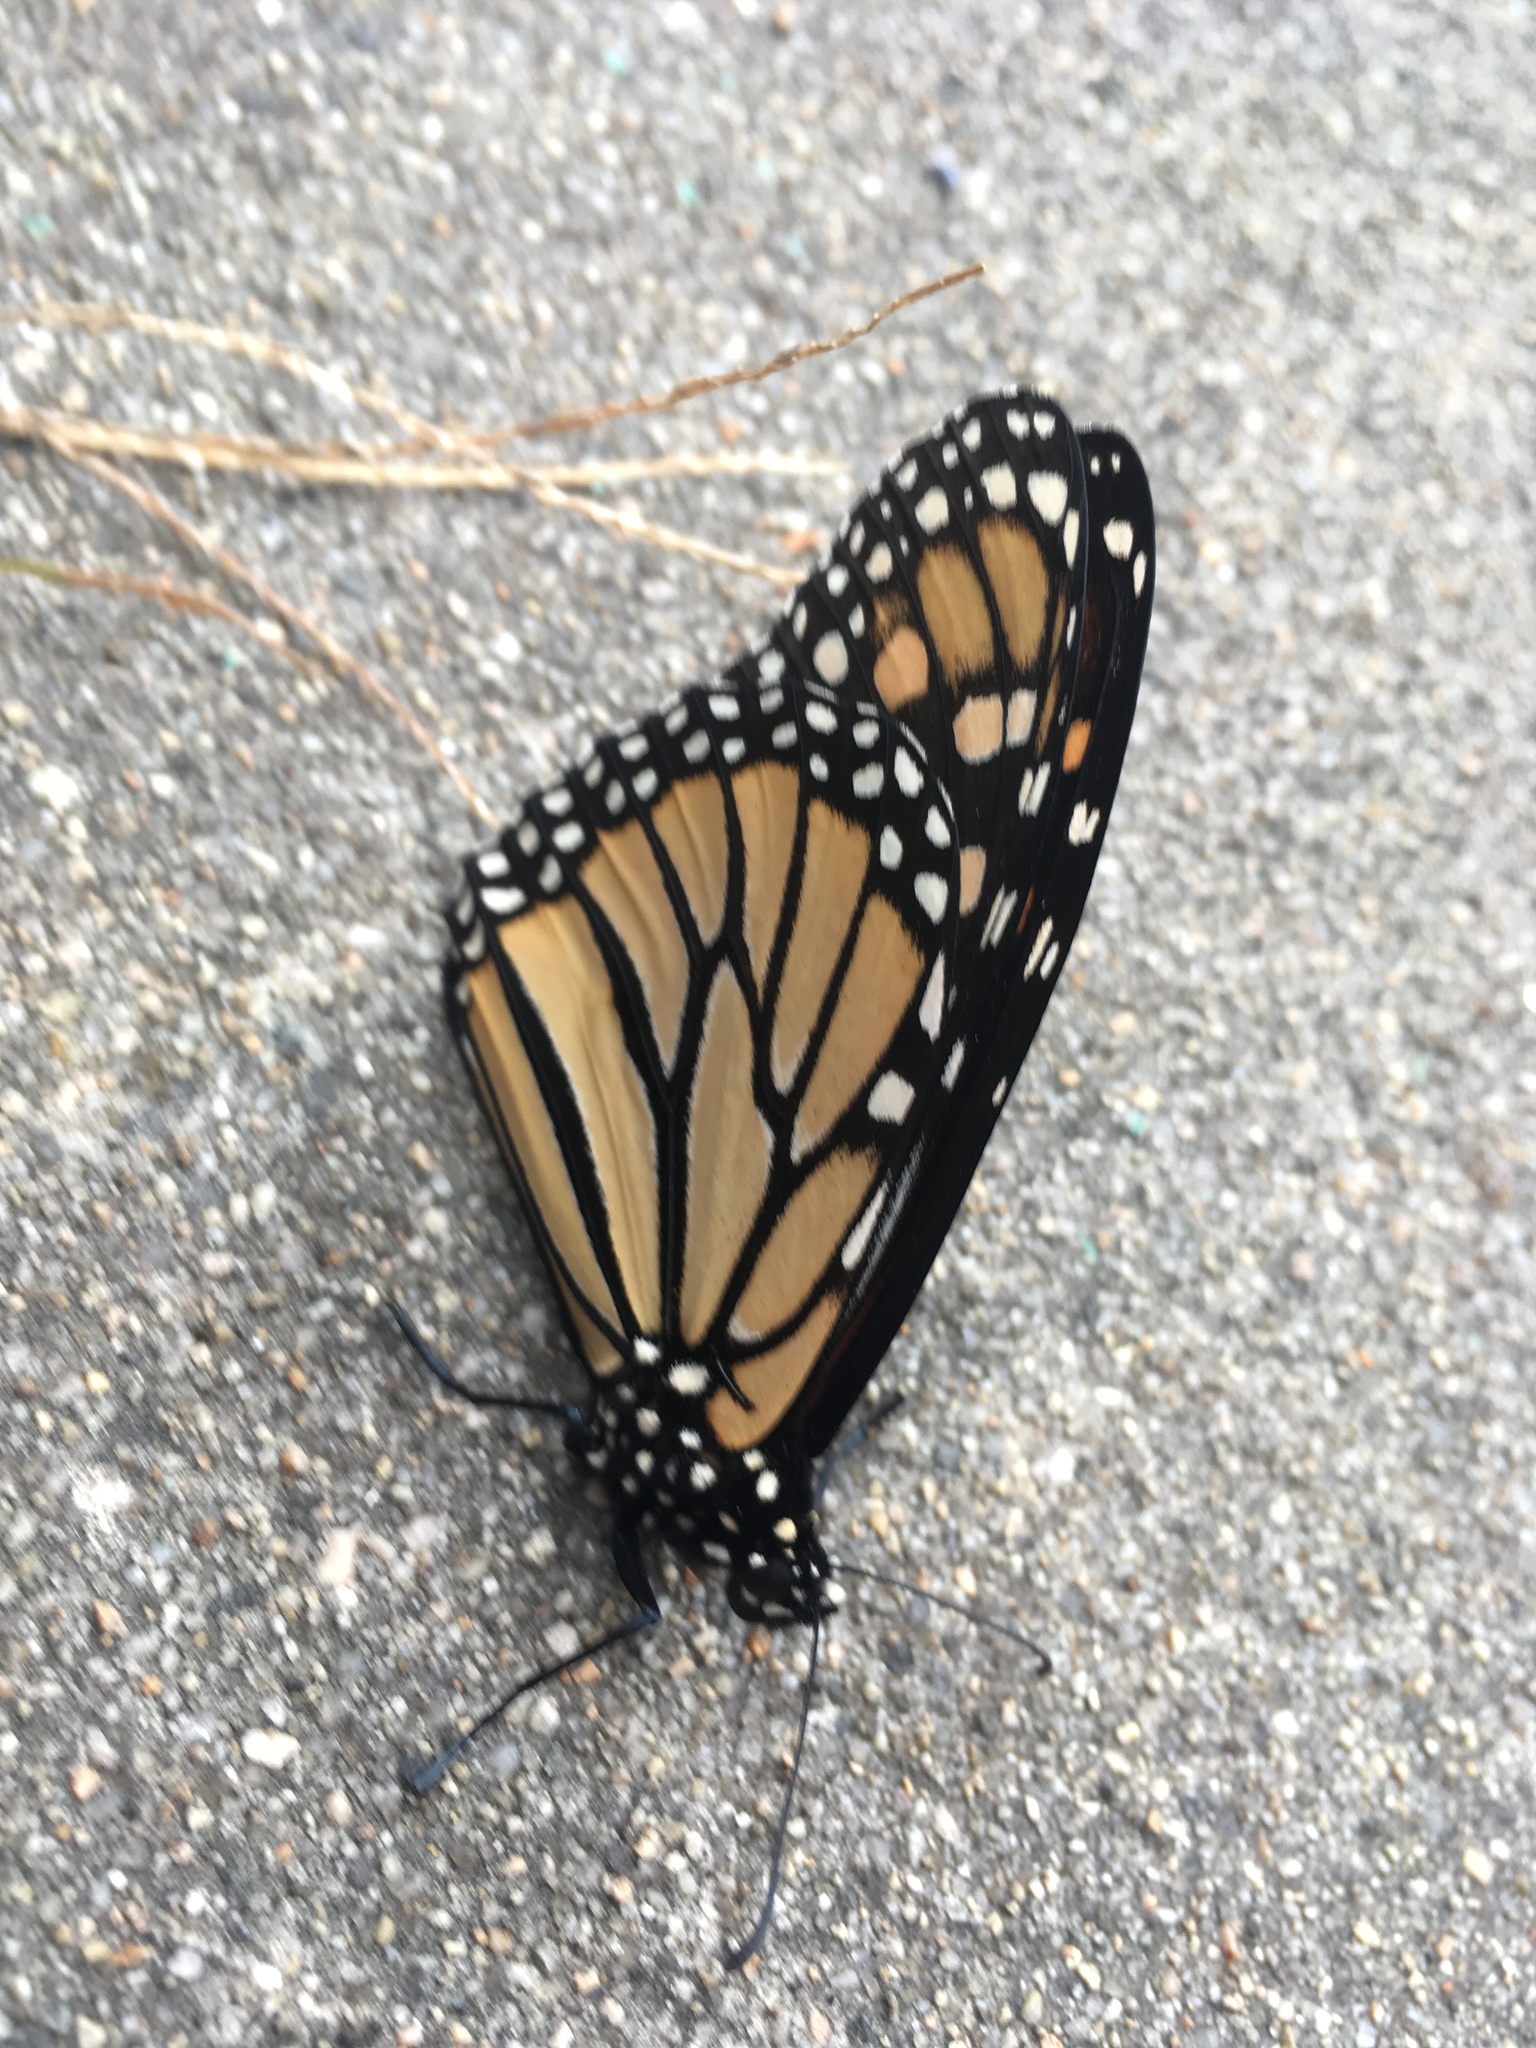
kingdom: Animalia
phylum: Arthropoda
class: Insecta
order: Lepidoptera
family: Nymphalidae
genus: Danaus
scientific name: Danaus plexippus
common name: Monarch
